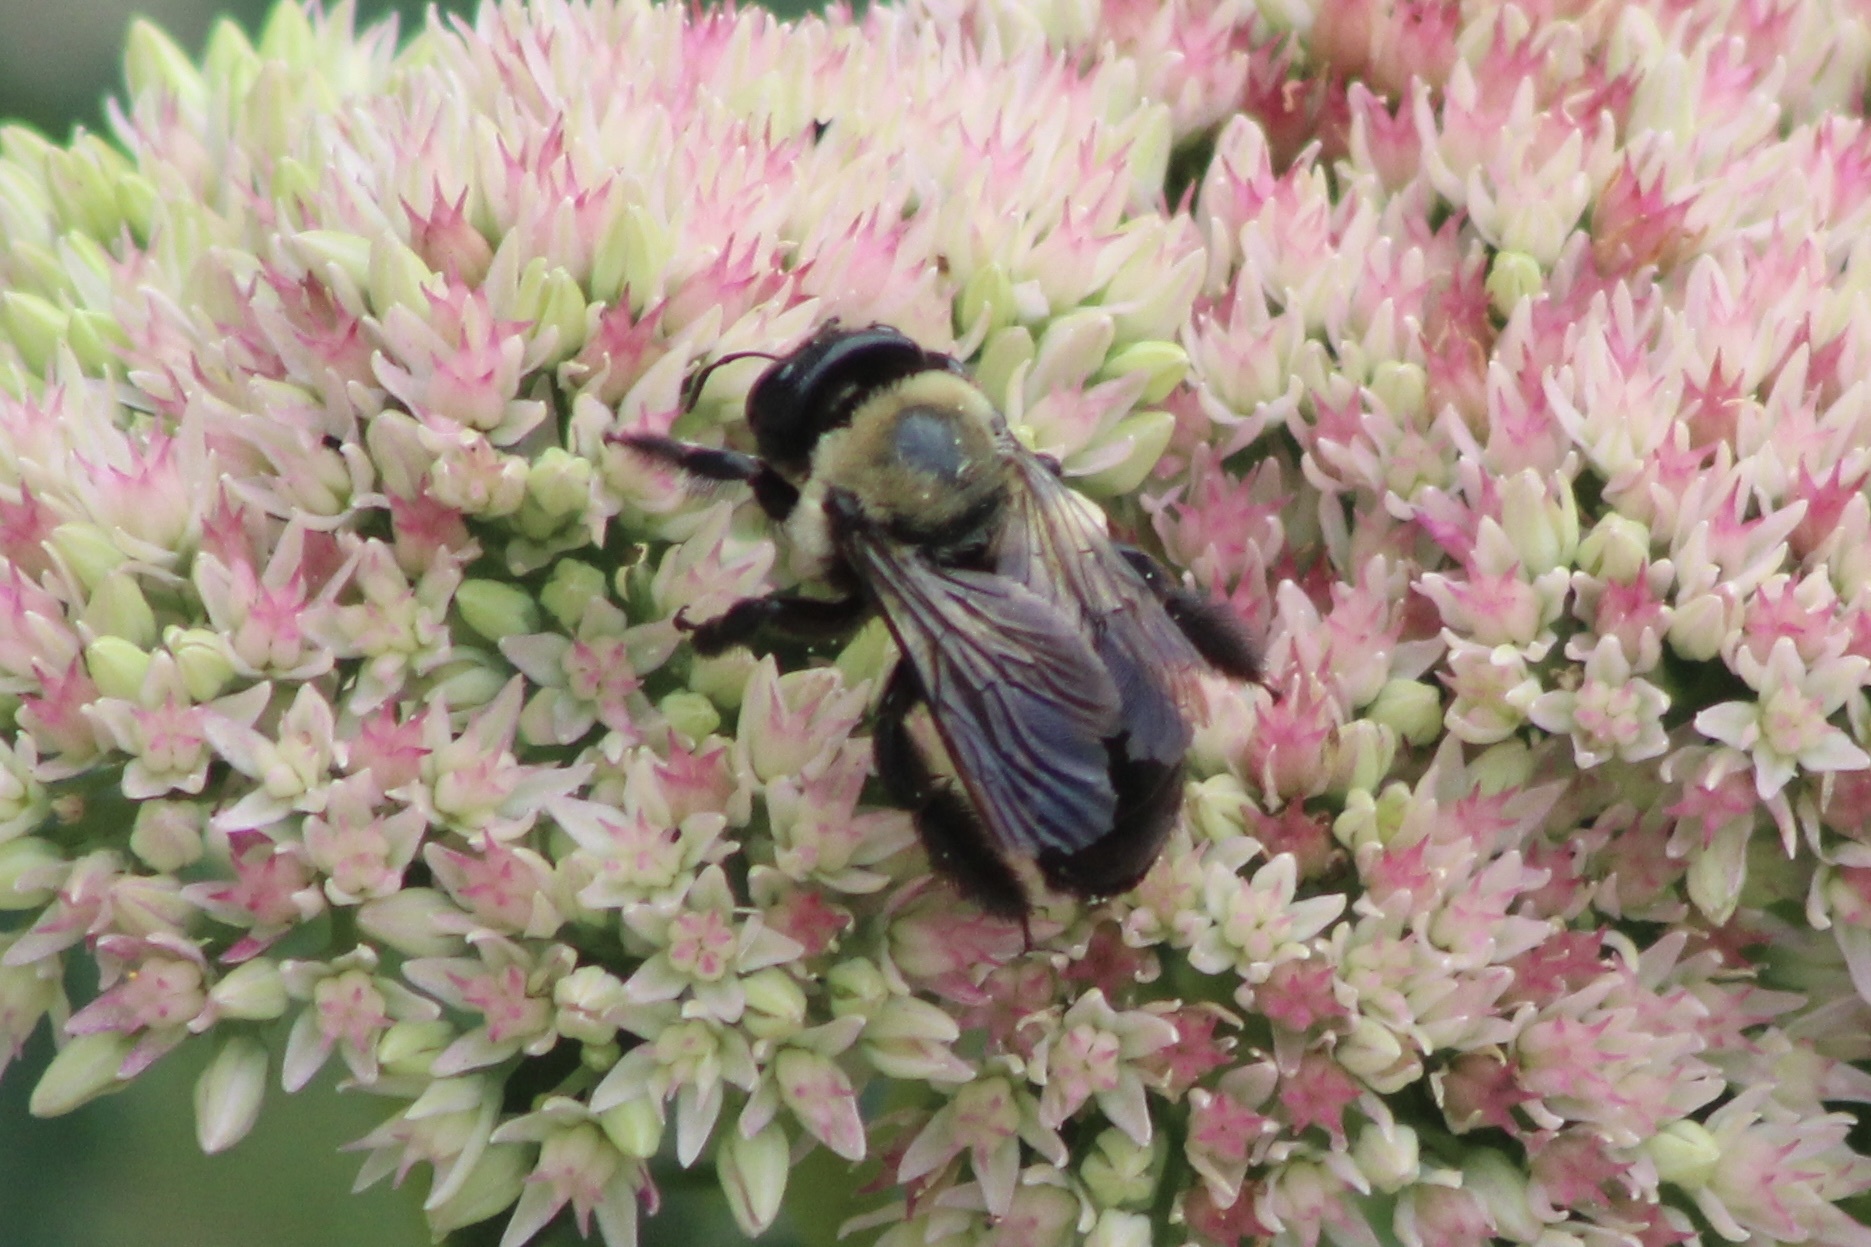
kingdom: Animalia
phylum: Arthropoda
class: Insecta
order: Hymenoptera
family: Apidae
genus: Xylocopa
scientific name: Xylocopa virginica
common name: Carpenter bee
